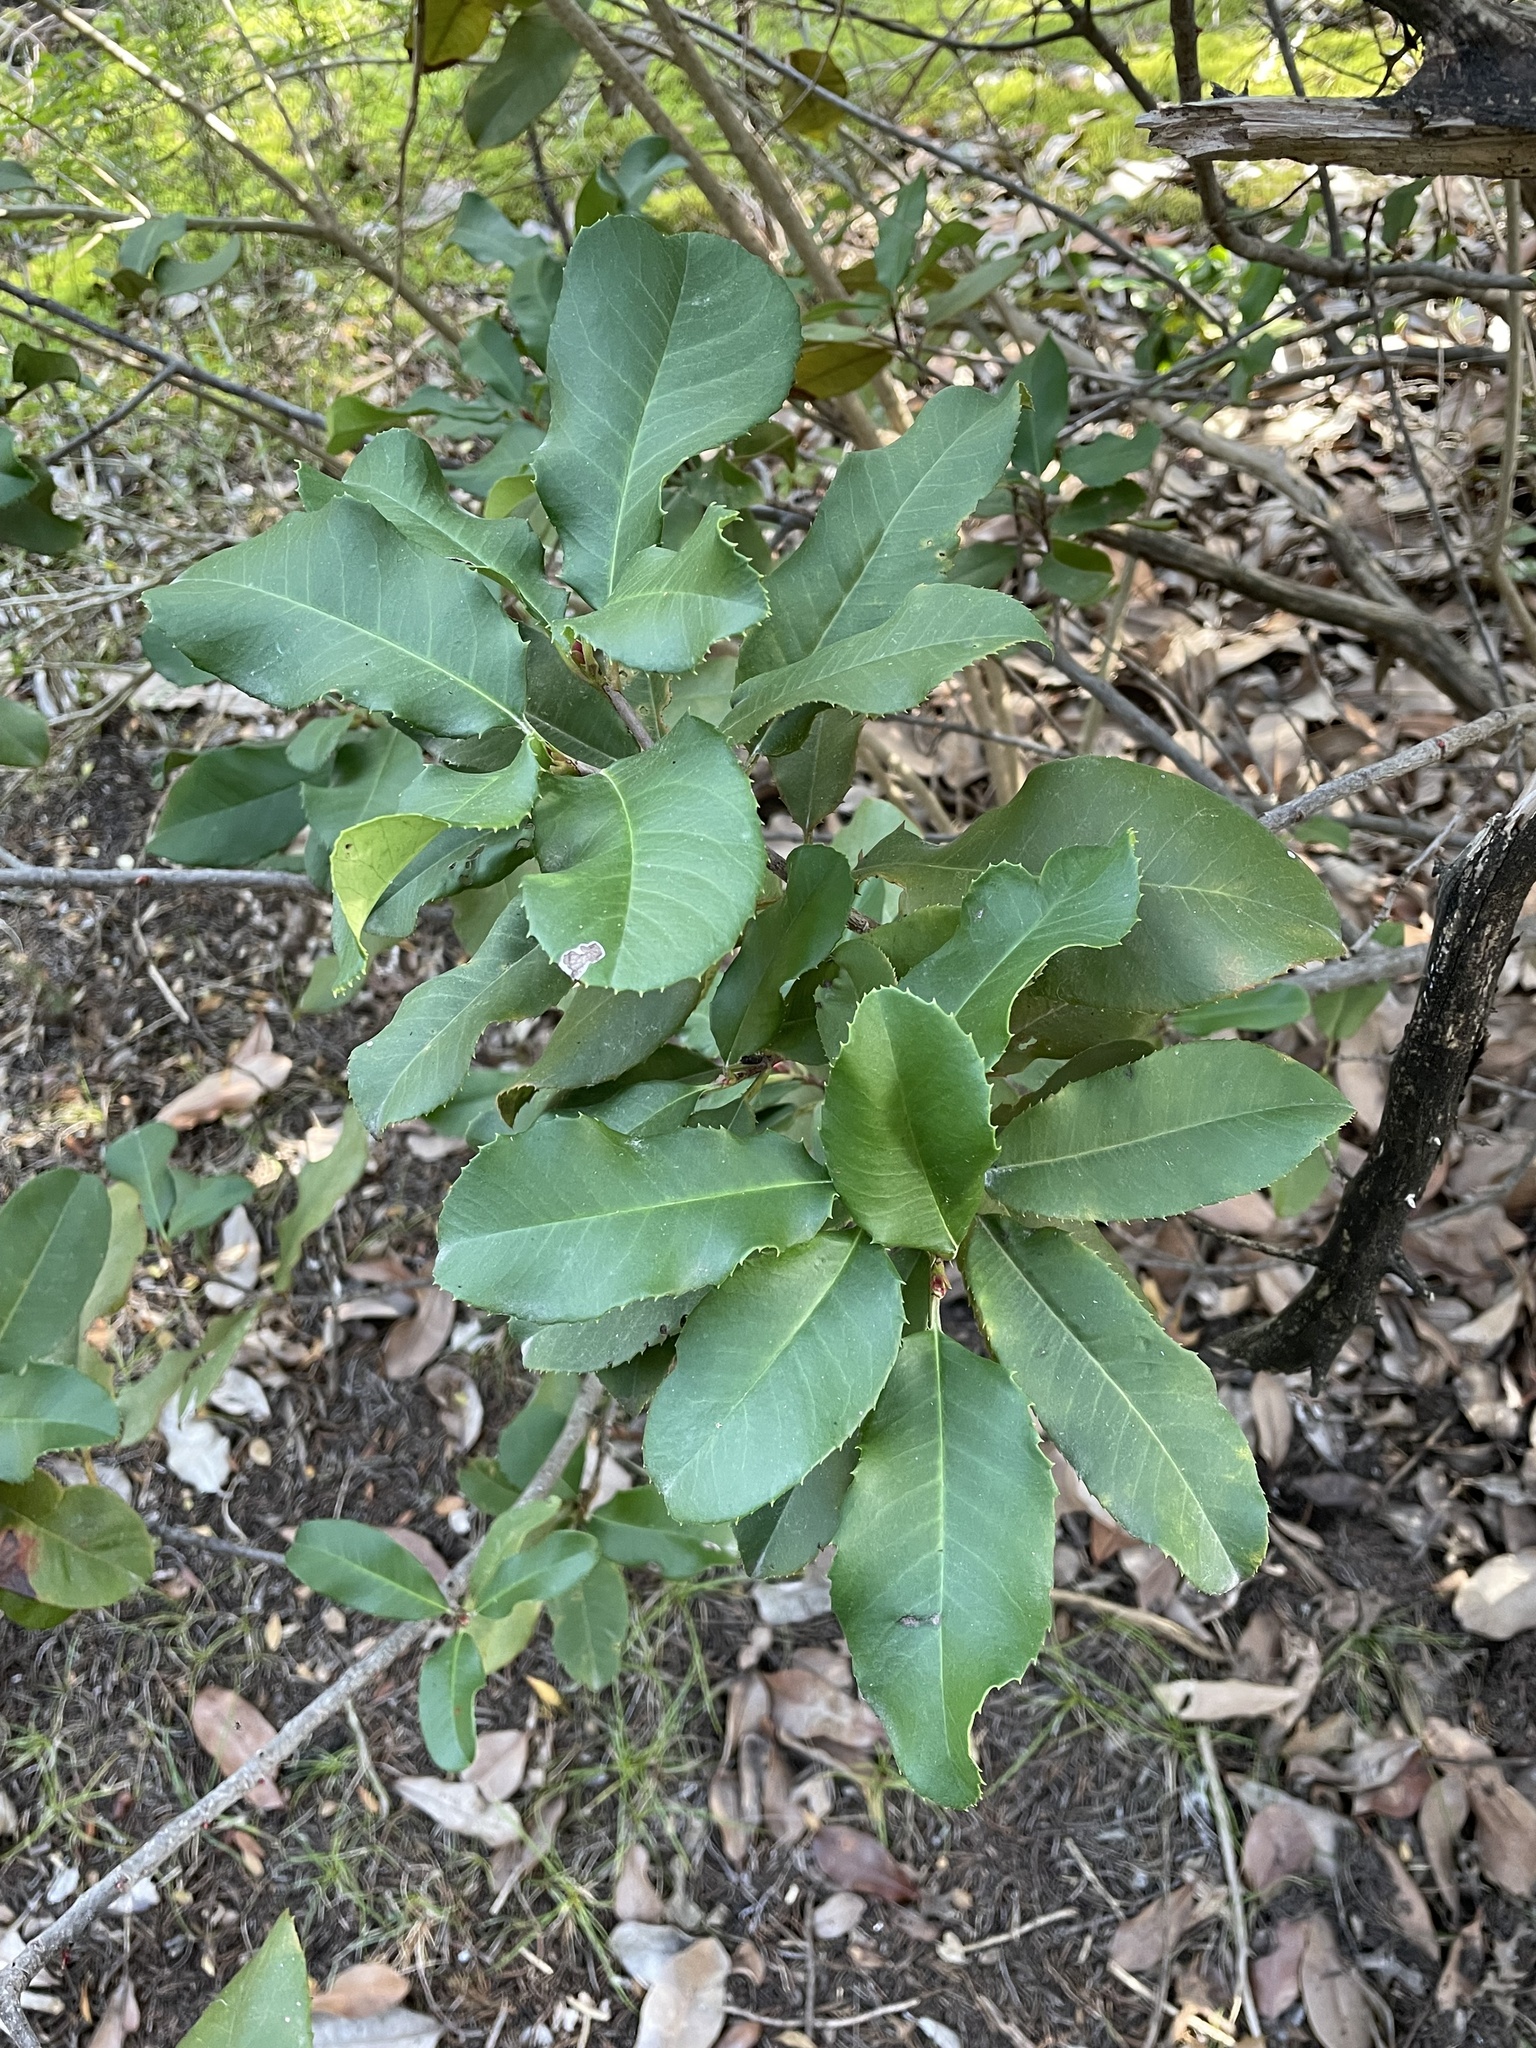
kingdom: Plantae
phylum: Tracheophyta
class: Magnoliopsida
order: Rosales
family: Rosaceae
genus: Photinia
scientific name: Photinia serratifolia
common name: Taiwanese photinia
